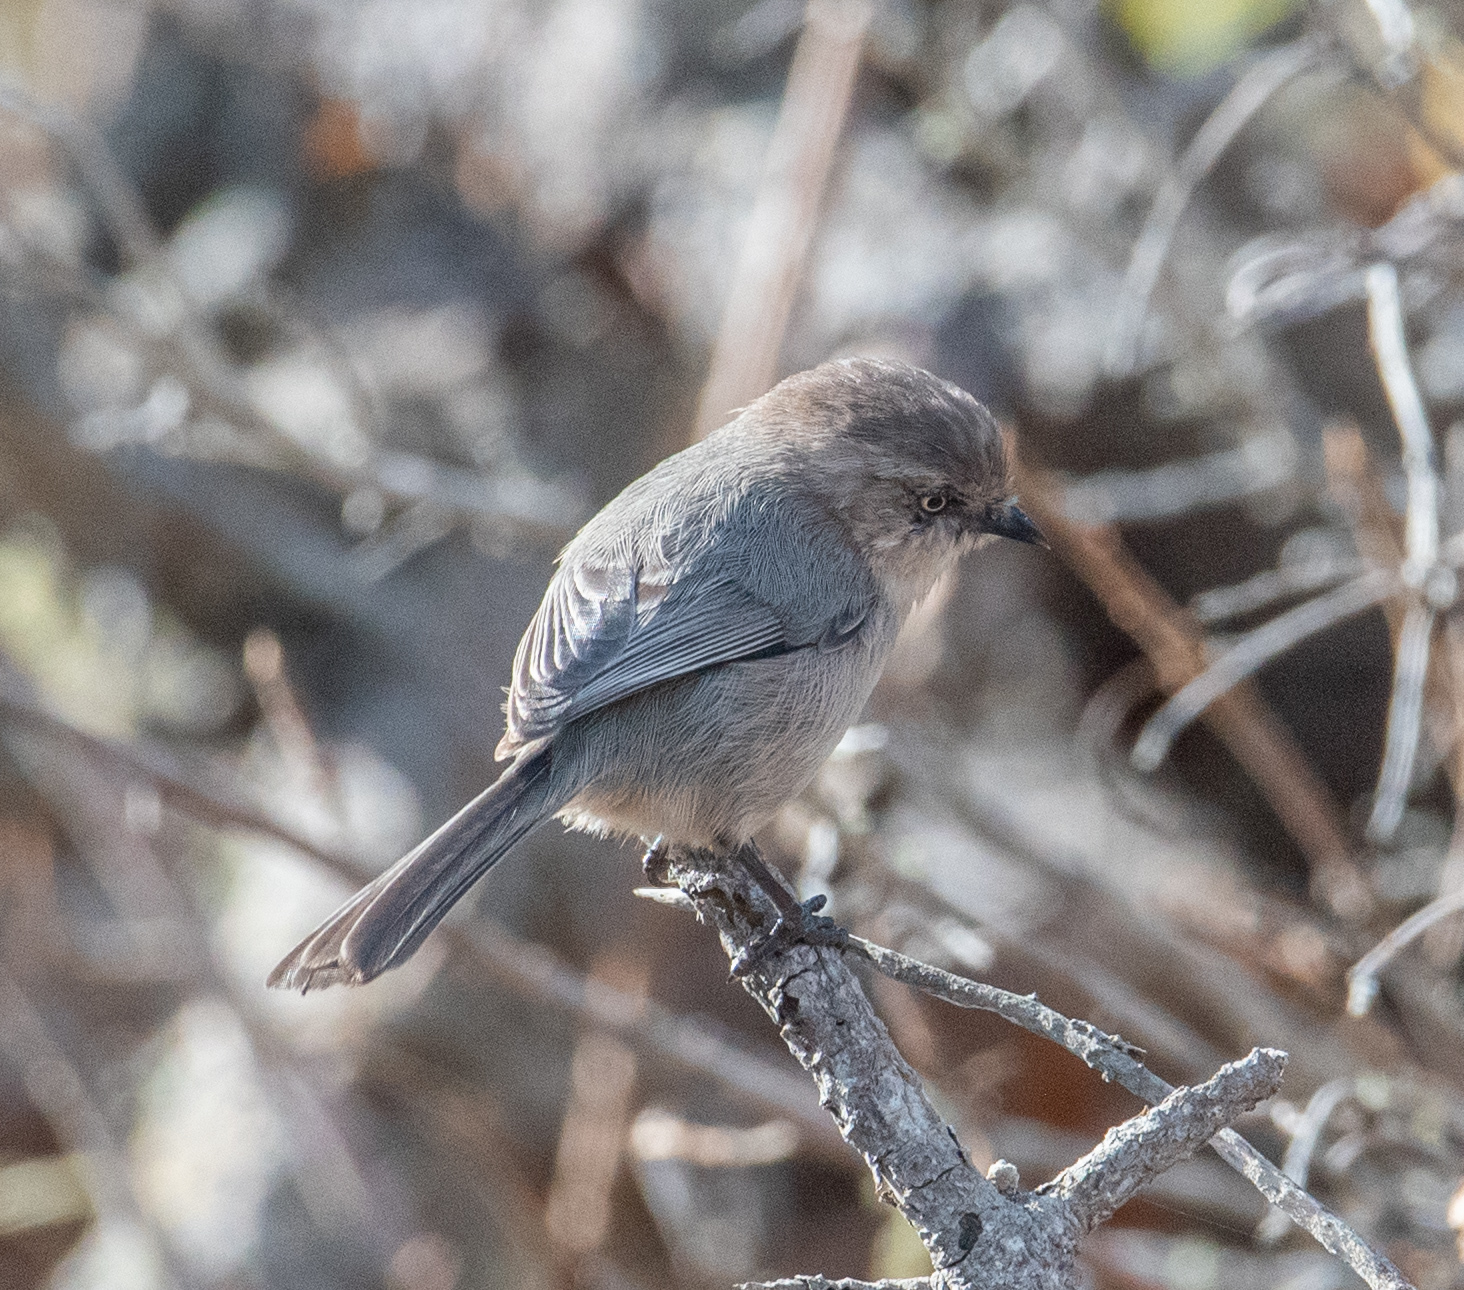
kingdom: Animalia
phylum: Chordata
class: Aves
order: Passeriformes
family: Aegithalidae
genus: Psaltriparus
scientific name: Psaltriparus minimus
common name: American bushtit
